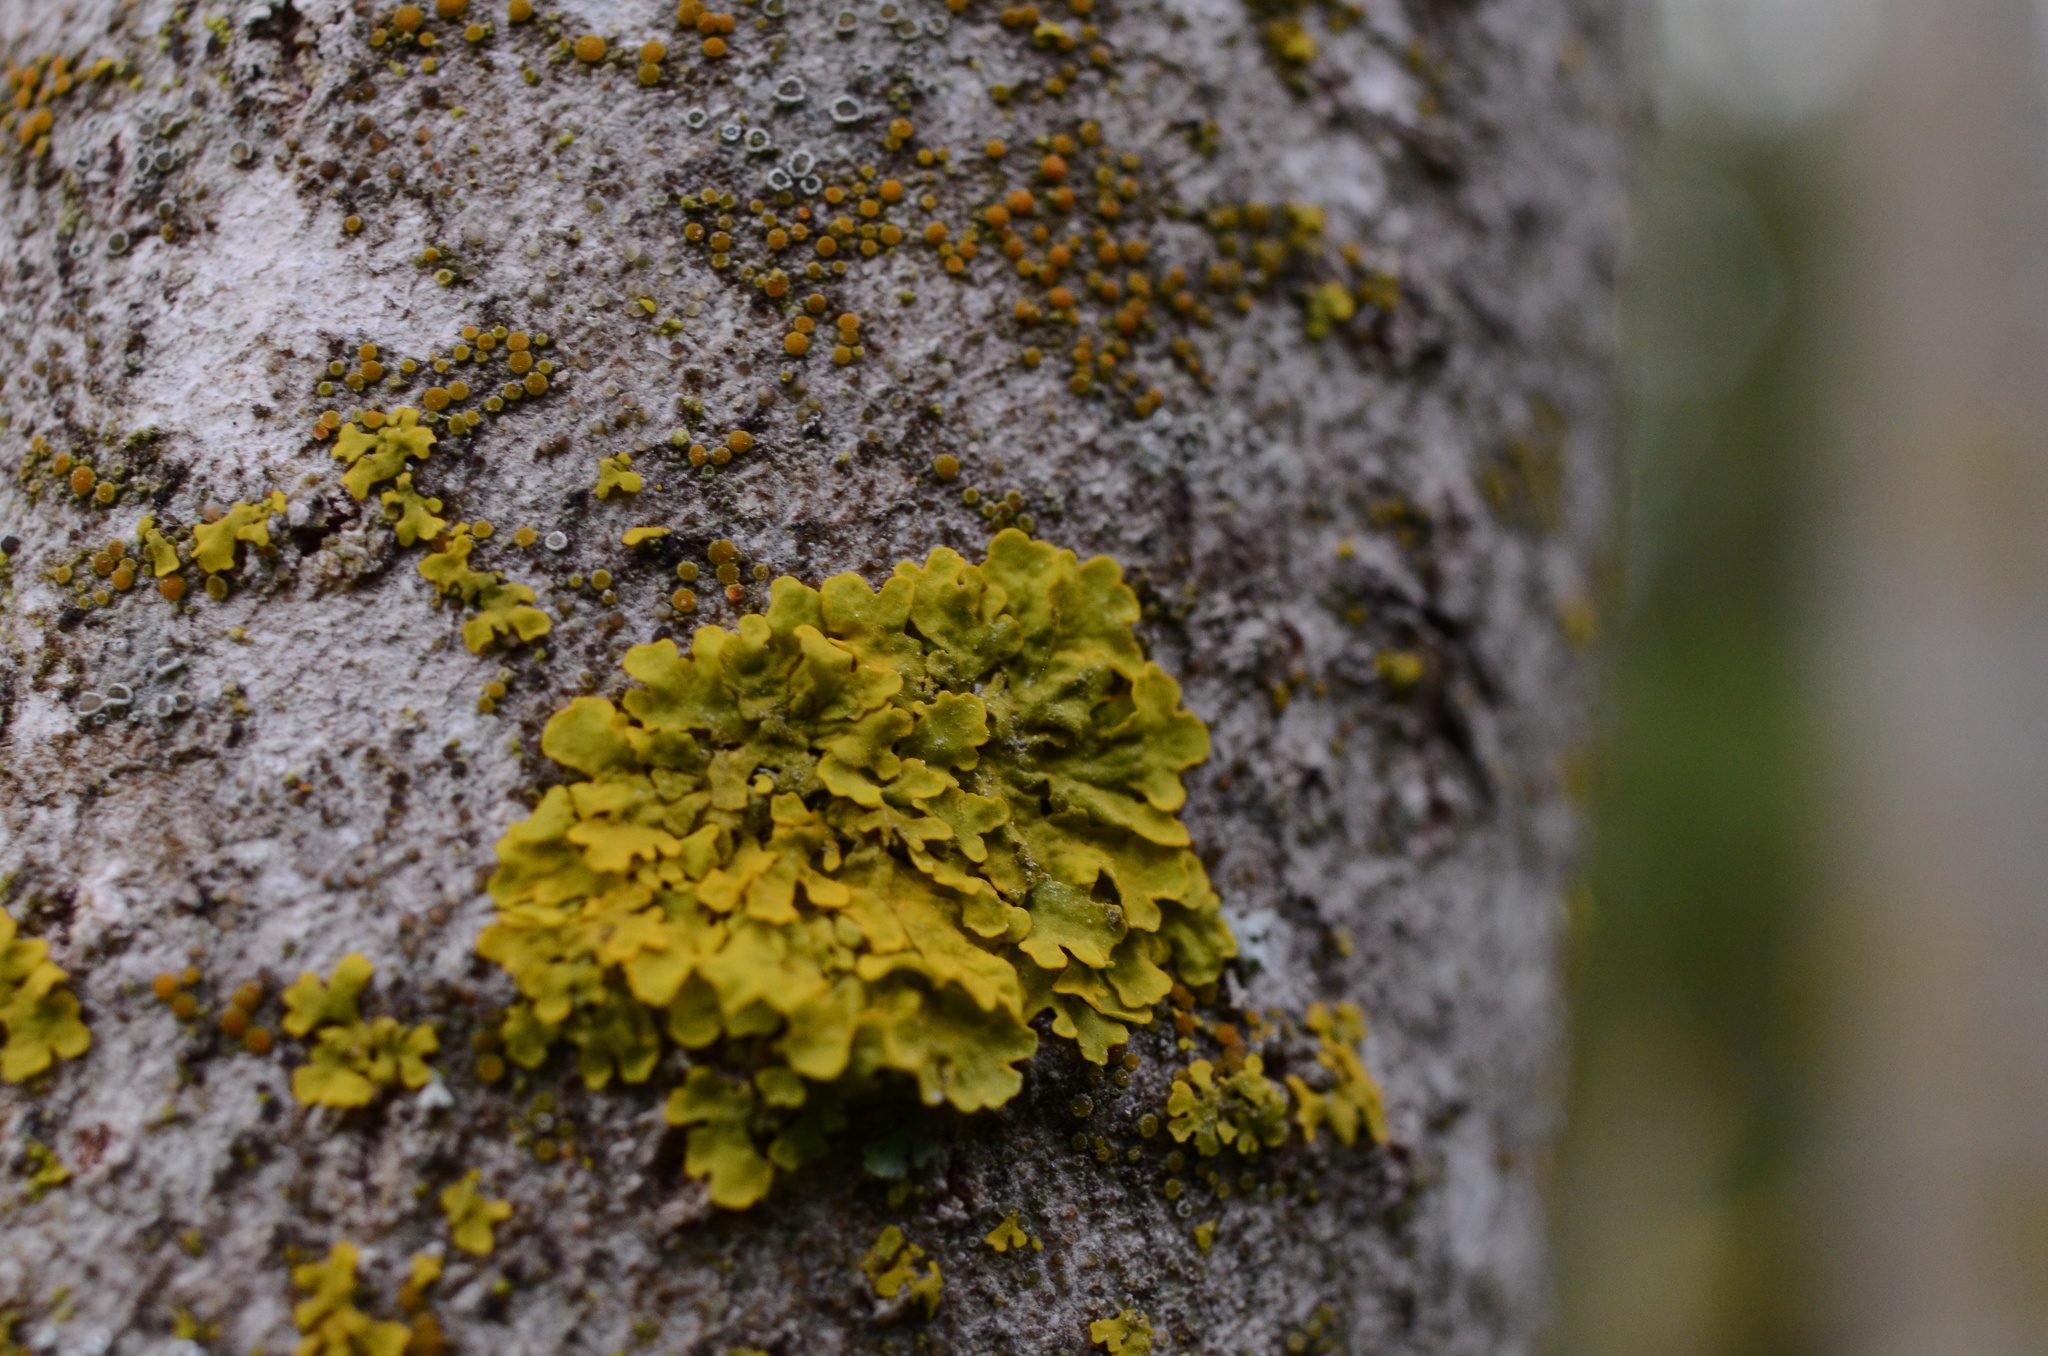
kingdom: Fungi
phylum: Ascomycota
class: Lecanoromycetes
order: Teloschistales
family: Teloschistaceae
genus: Xanthoria
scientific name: Xanthoria parietina
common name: Common orange lichen
